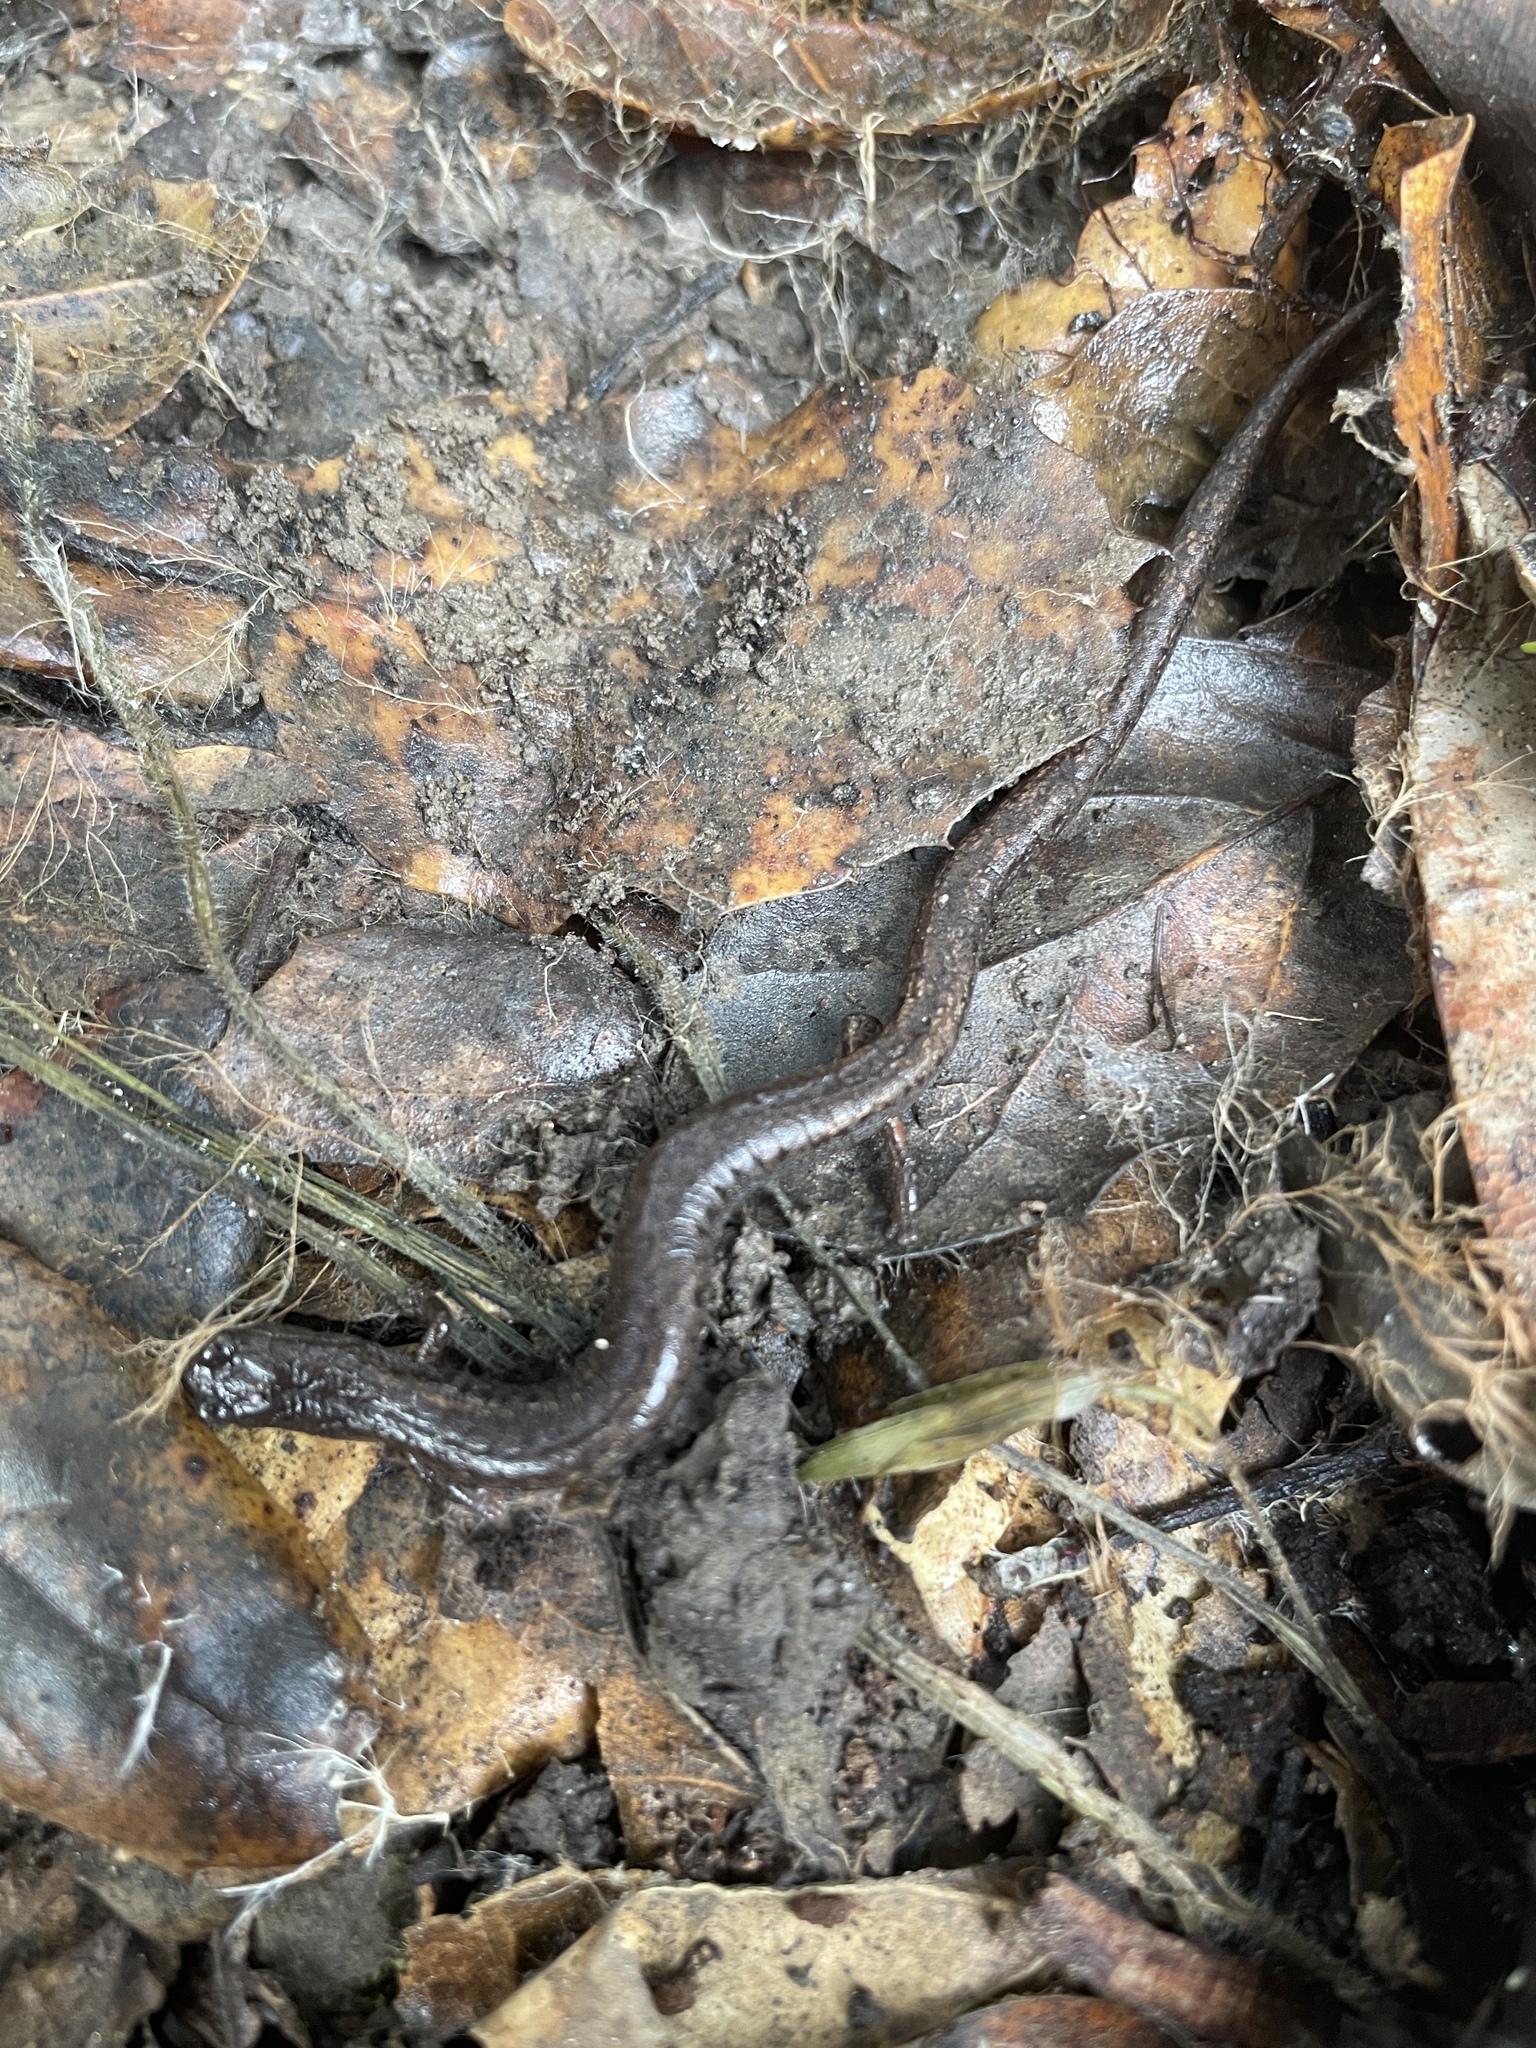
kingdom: Animalia
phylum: Chordata
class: Amphibia
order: Caudata
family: Plethodontidae
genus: Batrachoseps
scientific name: Batrachoseps attenuatus
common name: California slender salamander
